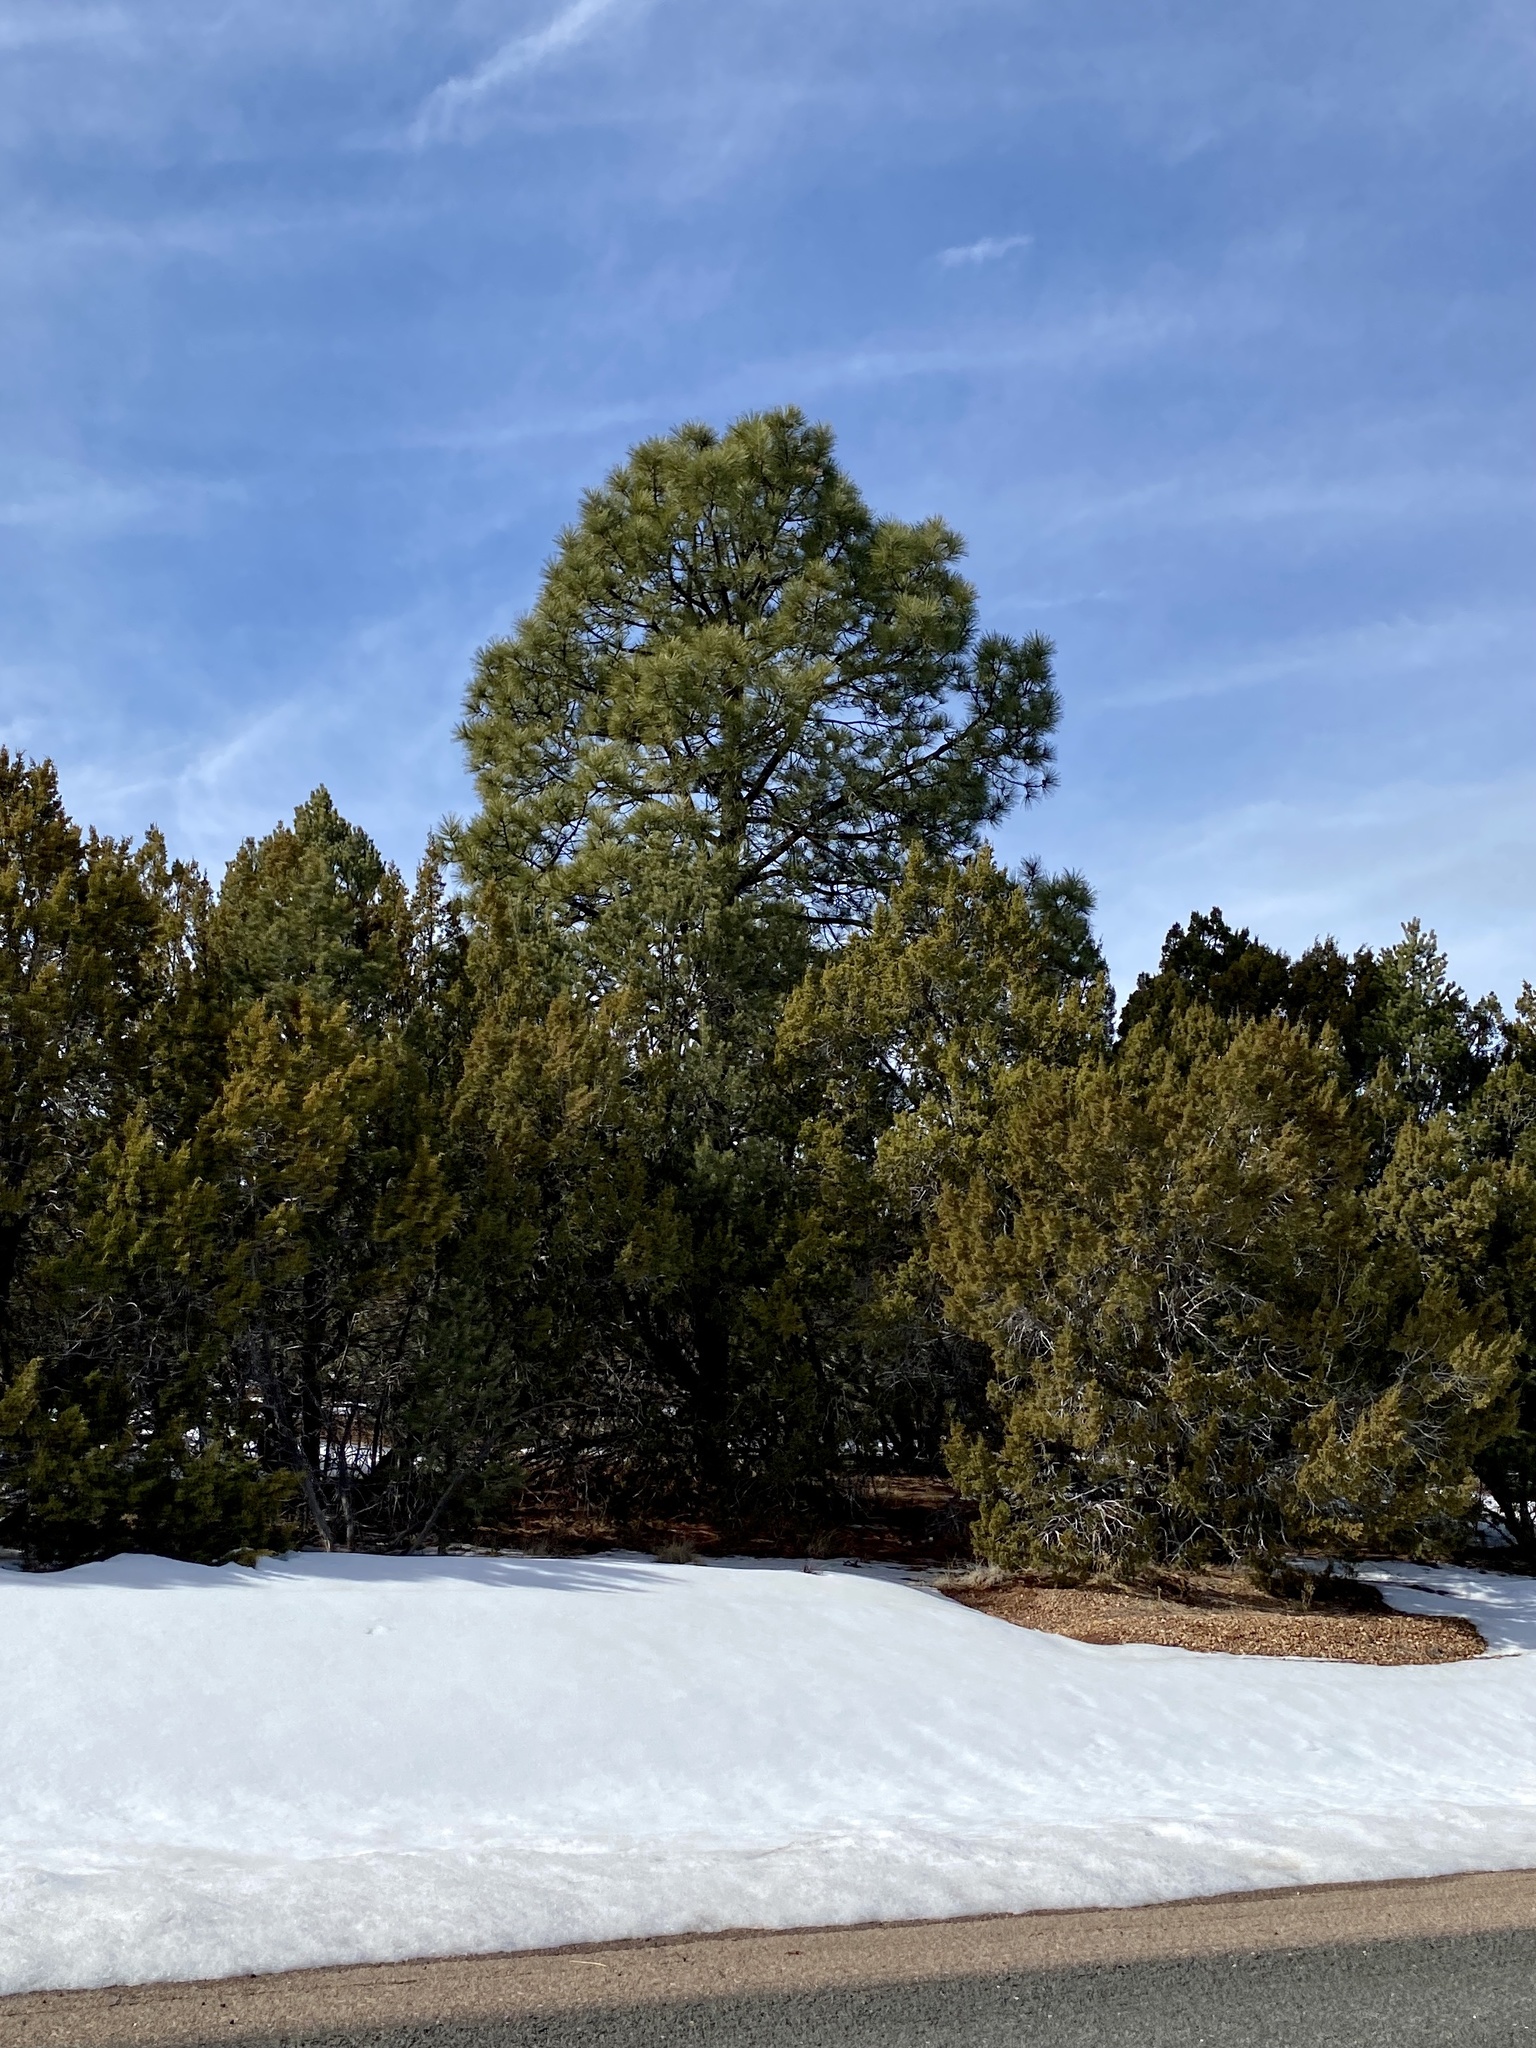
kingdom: Plantae
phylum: Tracheophyta
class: Pinopsida
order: Pinales
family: Pinaceae
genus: Pinus
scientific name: Pinus ponderosa
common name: Western yellow-pine
